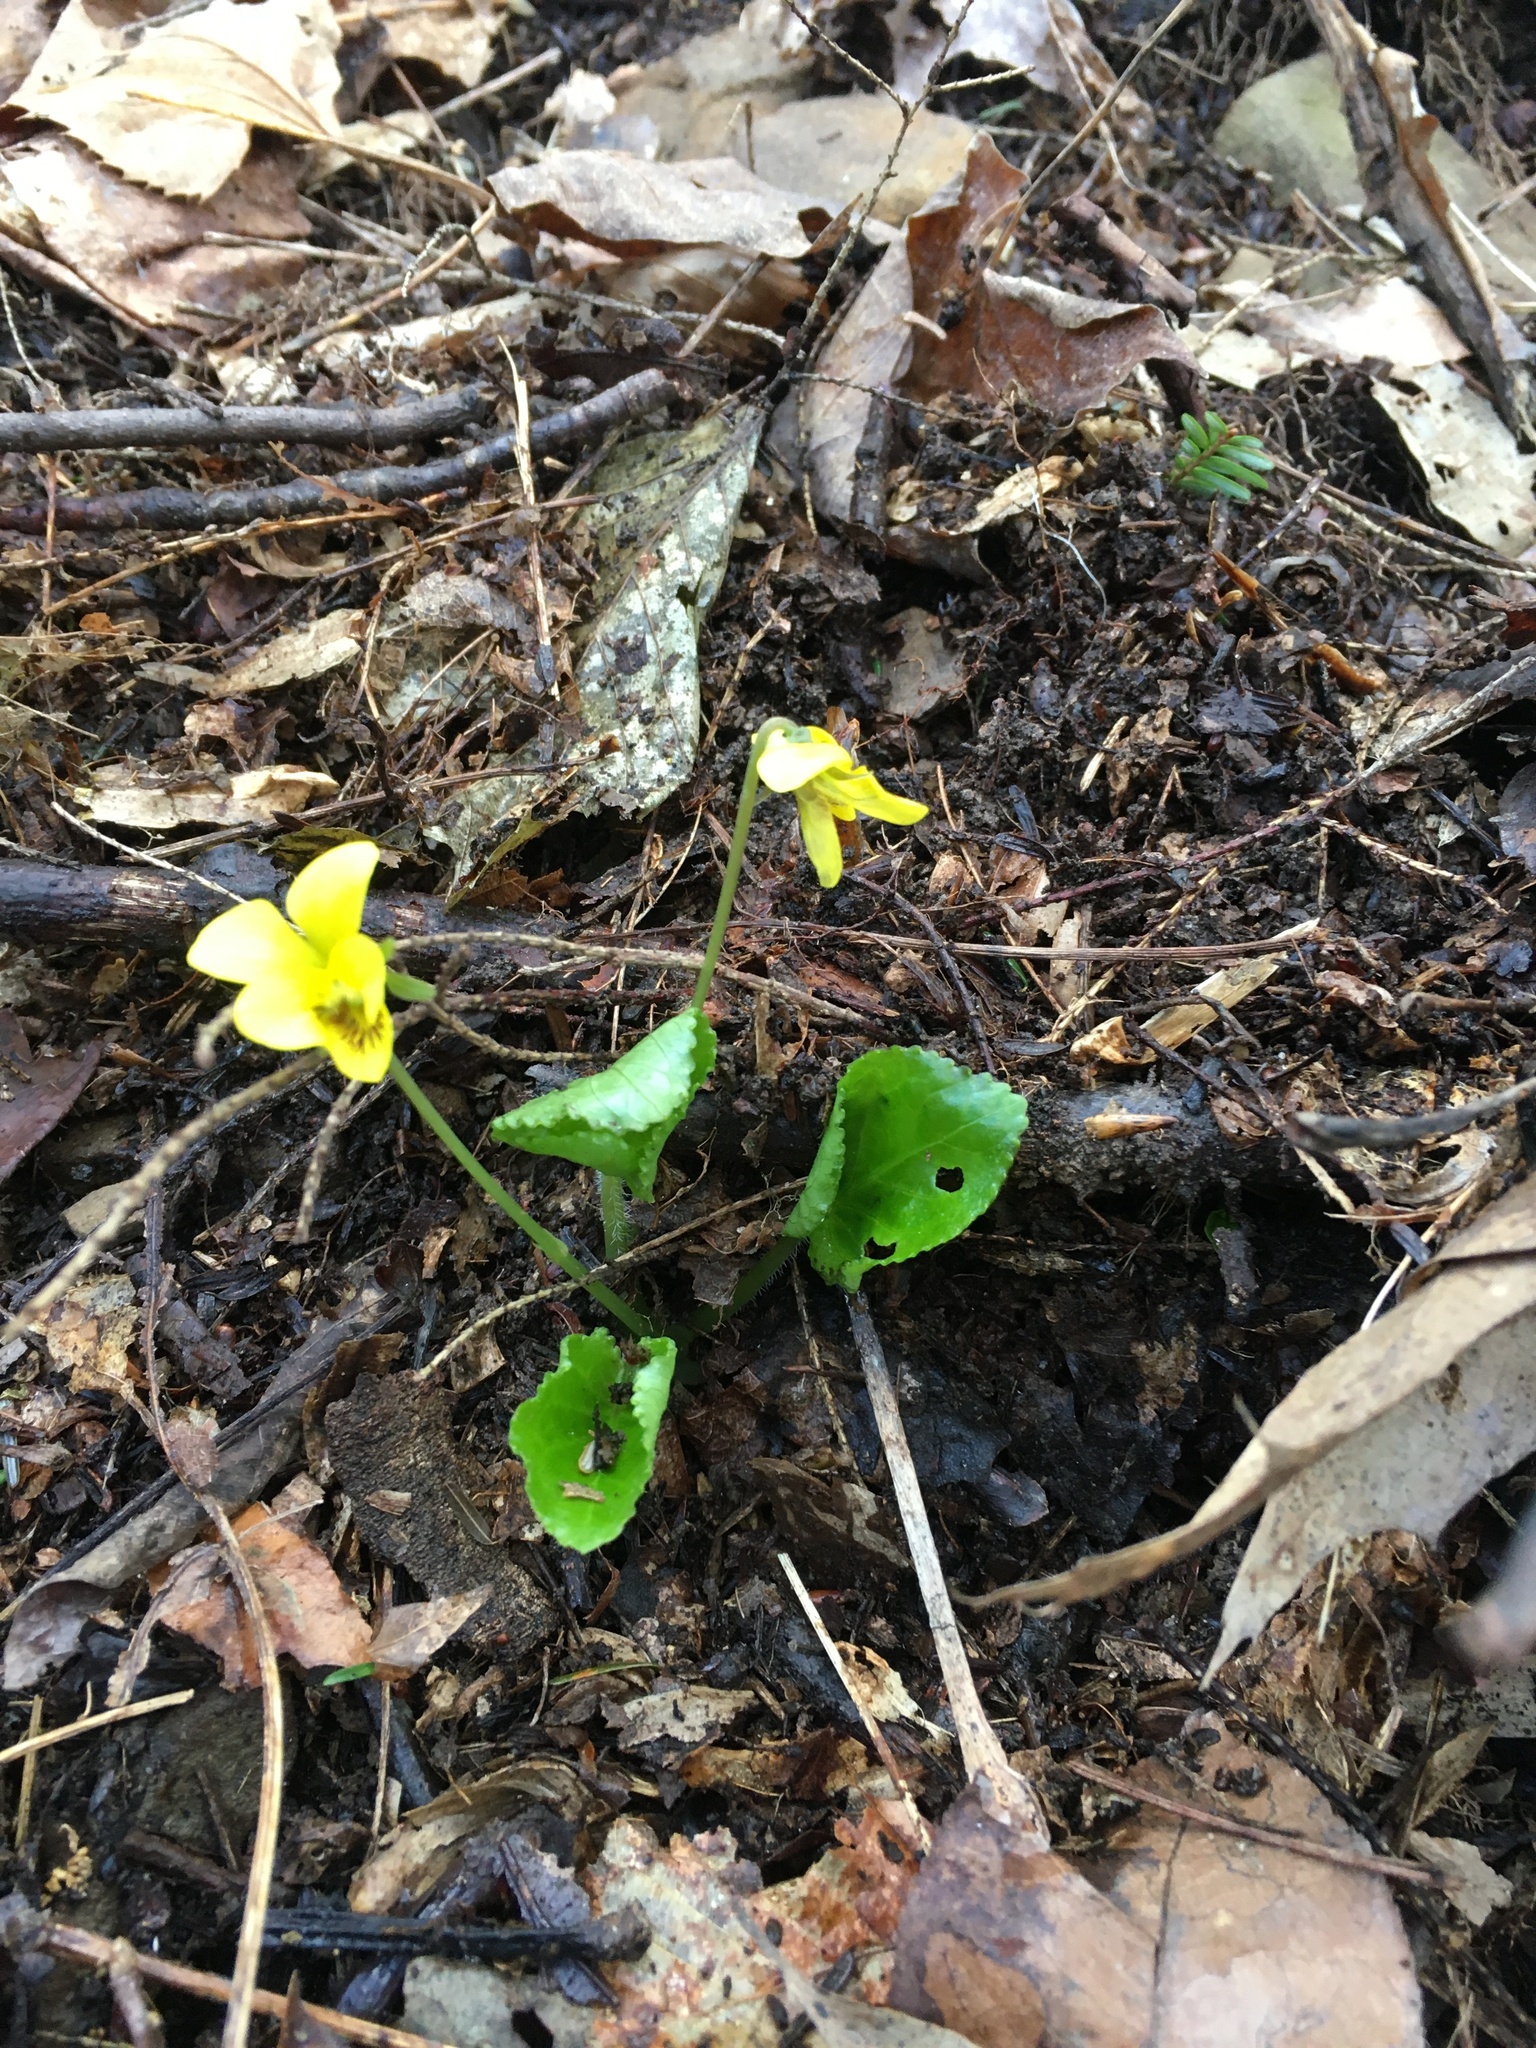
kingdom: Plantae
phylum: Tracheophyta
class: Magnoliopsida
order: Malpighiales
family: Violaceae
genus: Viola
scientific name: Viola rotundifolia
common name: Early yellow violet
